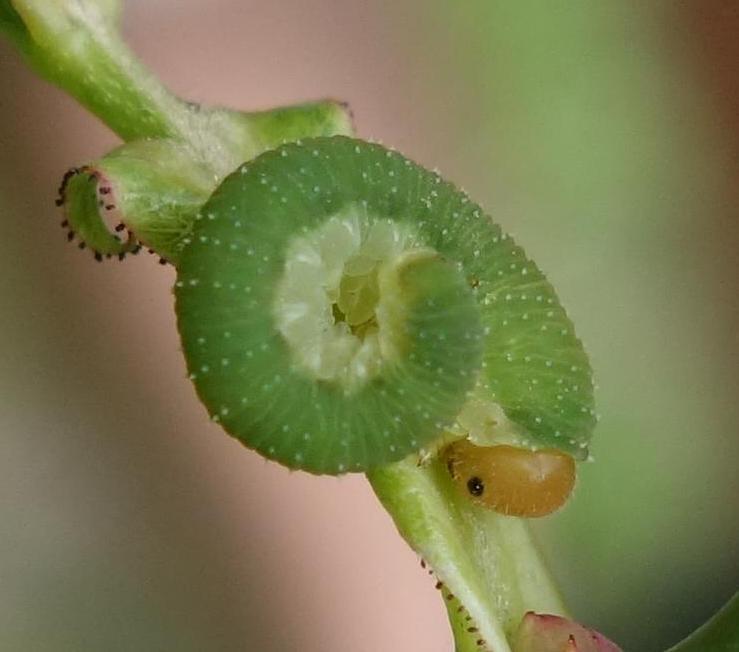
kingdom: Animalia
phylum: Arthropoda
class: Insecta
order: Hymenoptera
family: Tenthredinidae
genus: Allantus
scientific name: Allantus cinctus
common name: Curled rose sawfly
